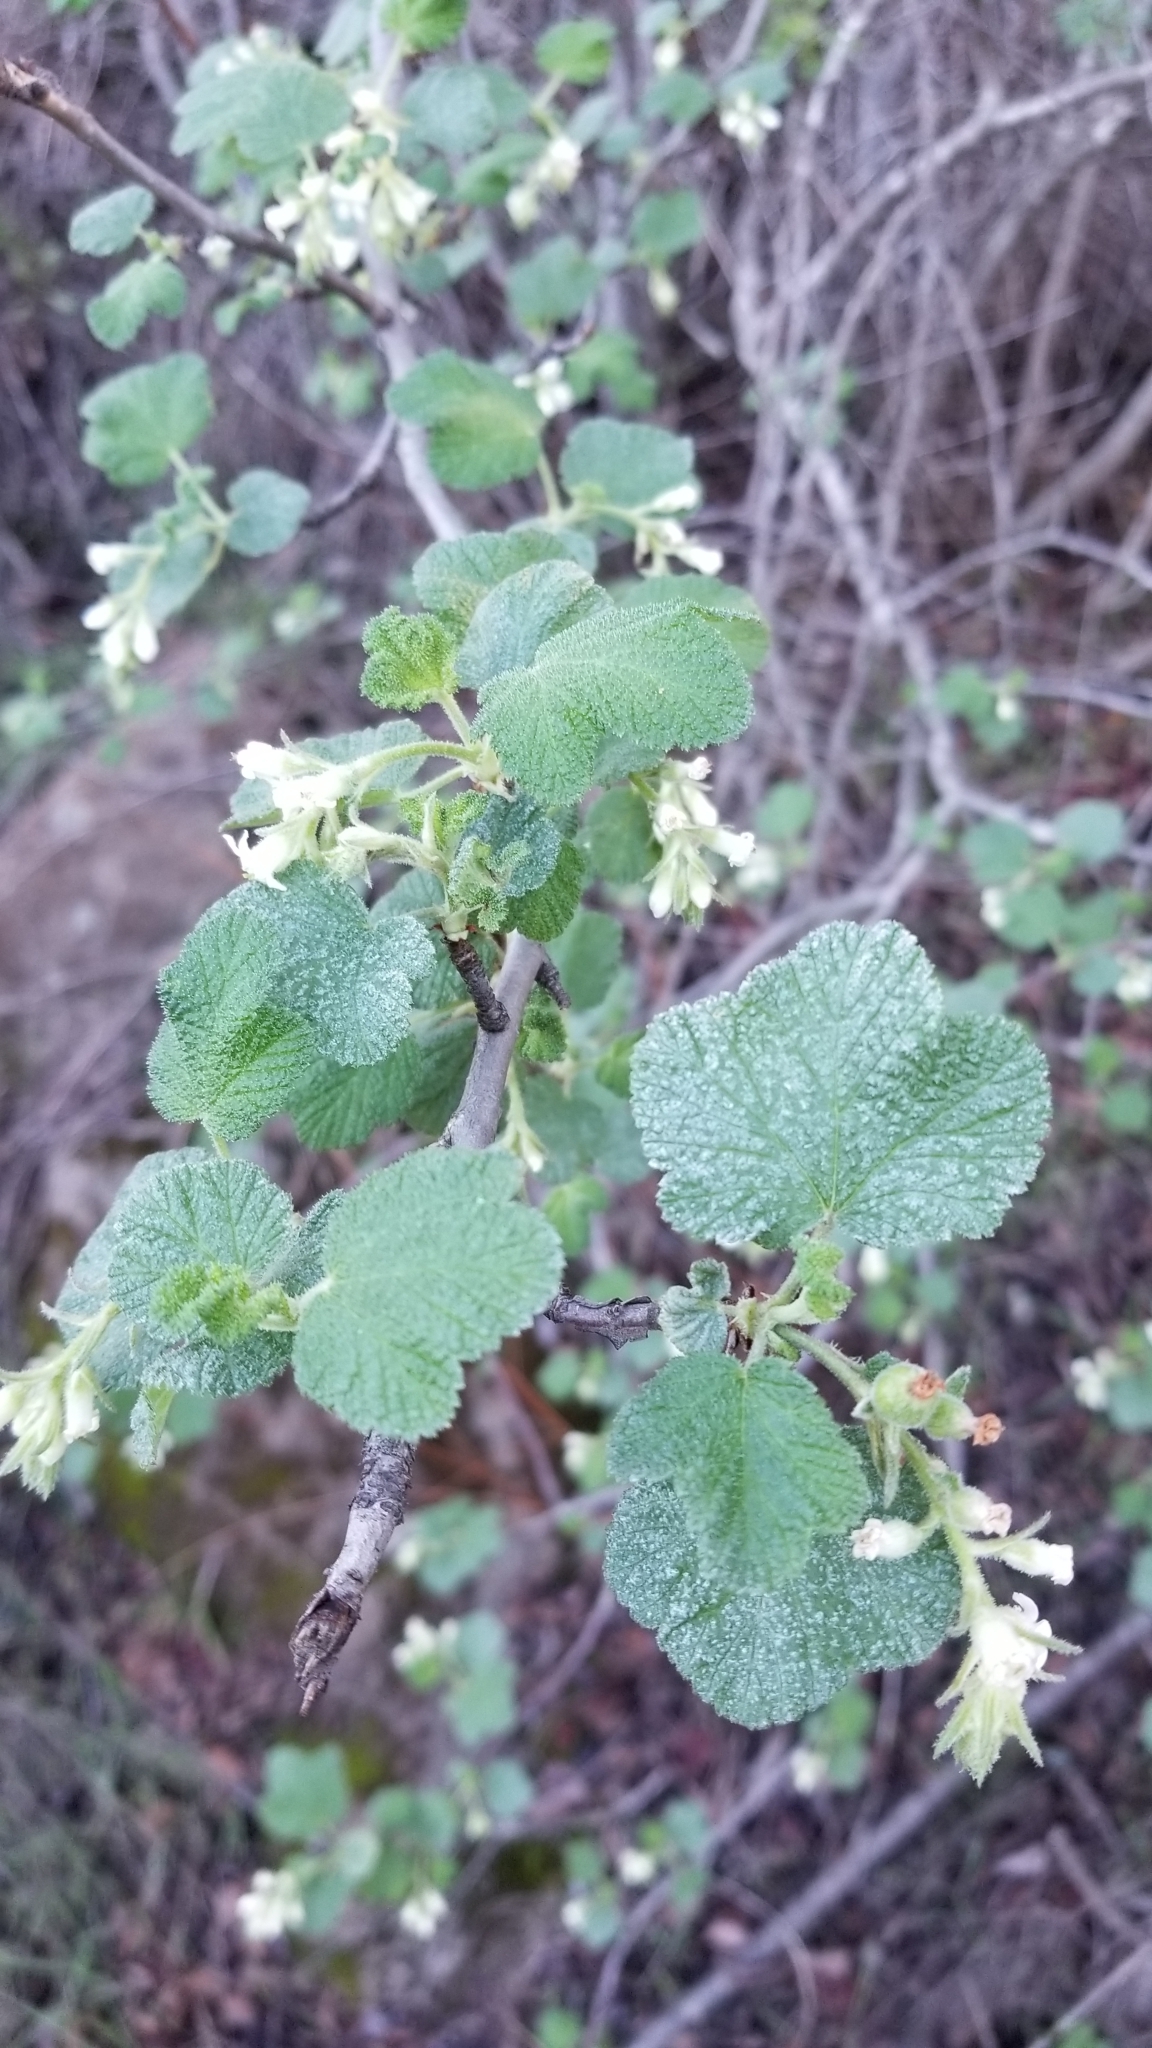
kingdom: Plantae
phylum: Tracheophyta
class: Magnoliopsida
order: Saxifragales
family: Grossulariaceae
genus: Ribes
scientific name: Ribes indecorum
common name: White-flower currant
